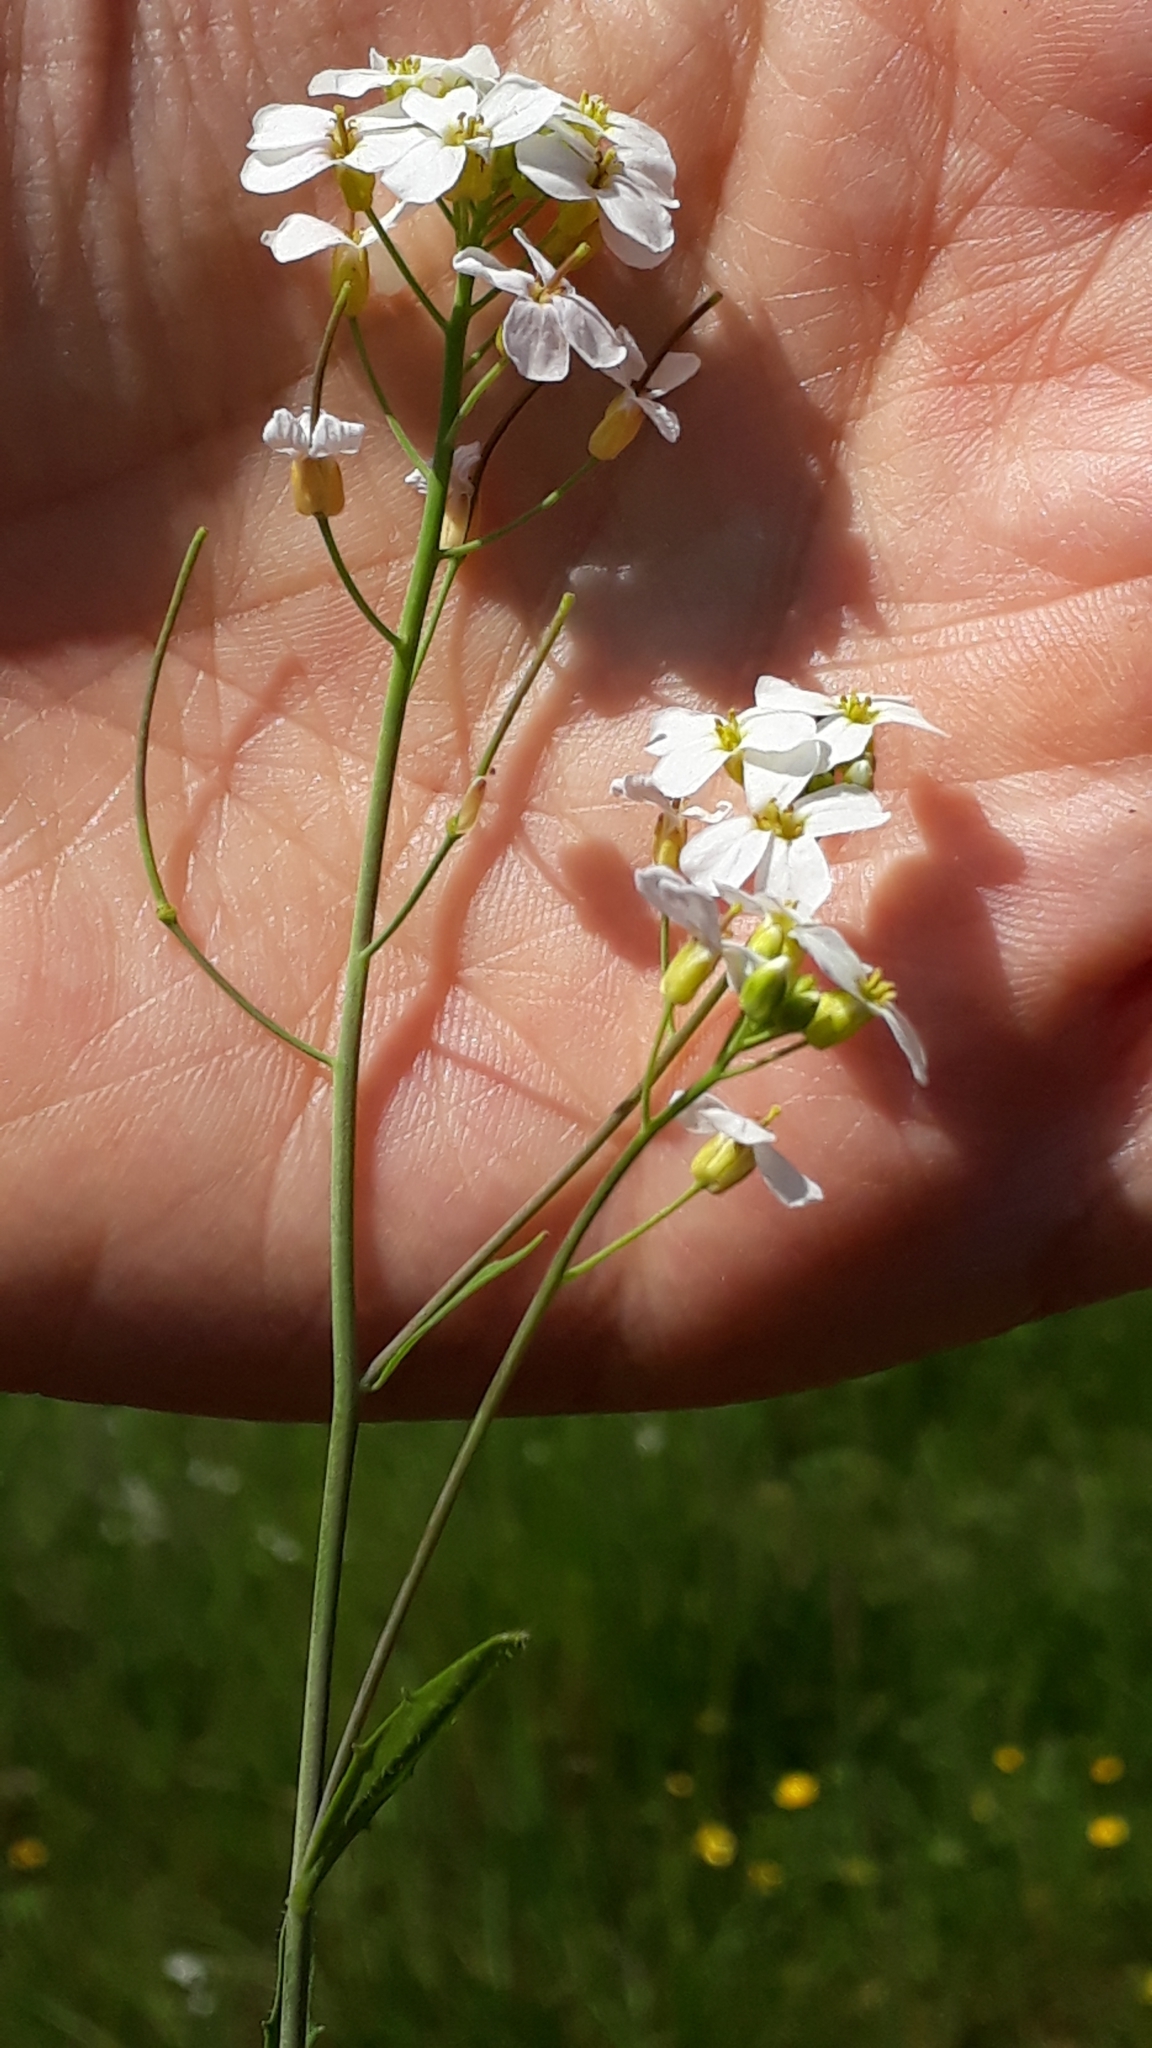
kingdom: Plantae
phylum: Tracheophyta
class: Magnoliopsida
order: Brassicales
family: Brassicaceae
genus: Arabidopsis
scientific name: Arabidopsis arenosa
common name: Sand rock-cress
